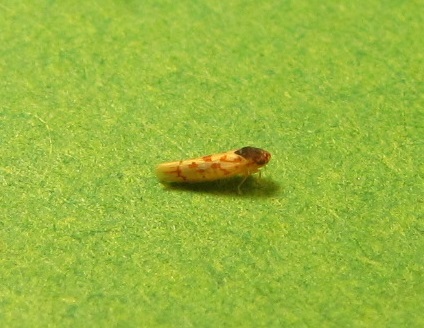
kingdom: Animalia
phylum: Arthropoda
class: Insecta
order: Hemiptera
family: Cicadellidae
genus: Eratoneura
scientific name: Eratoneura ardens
